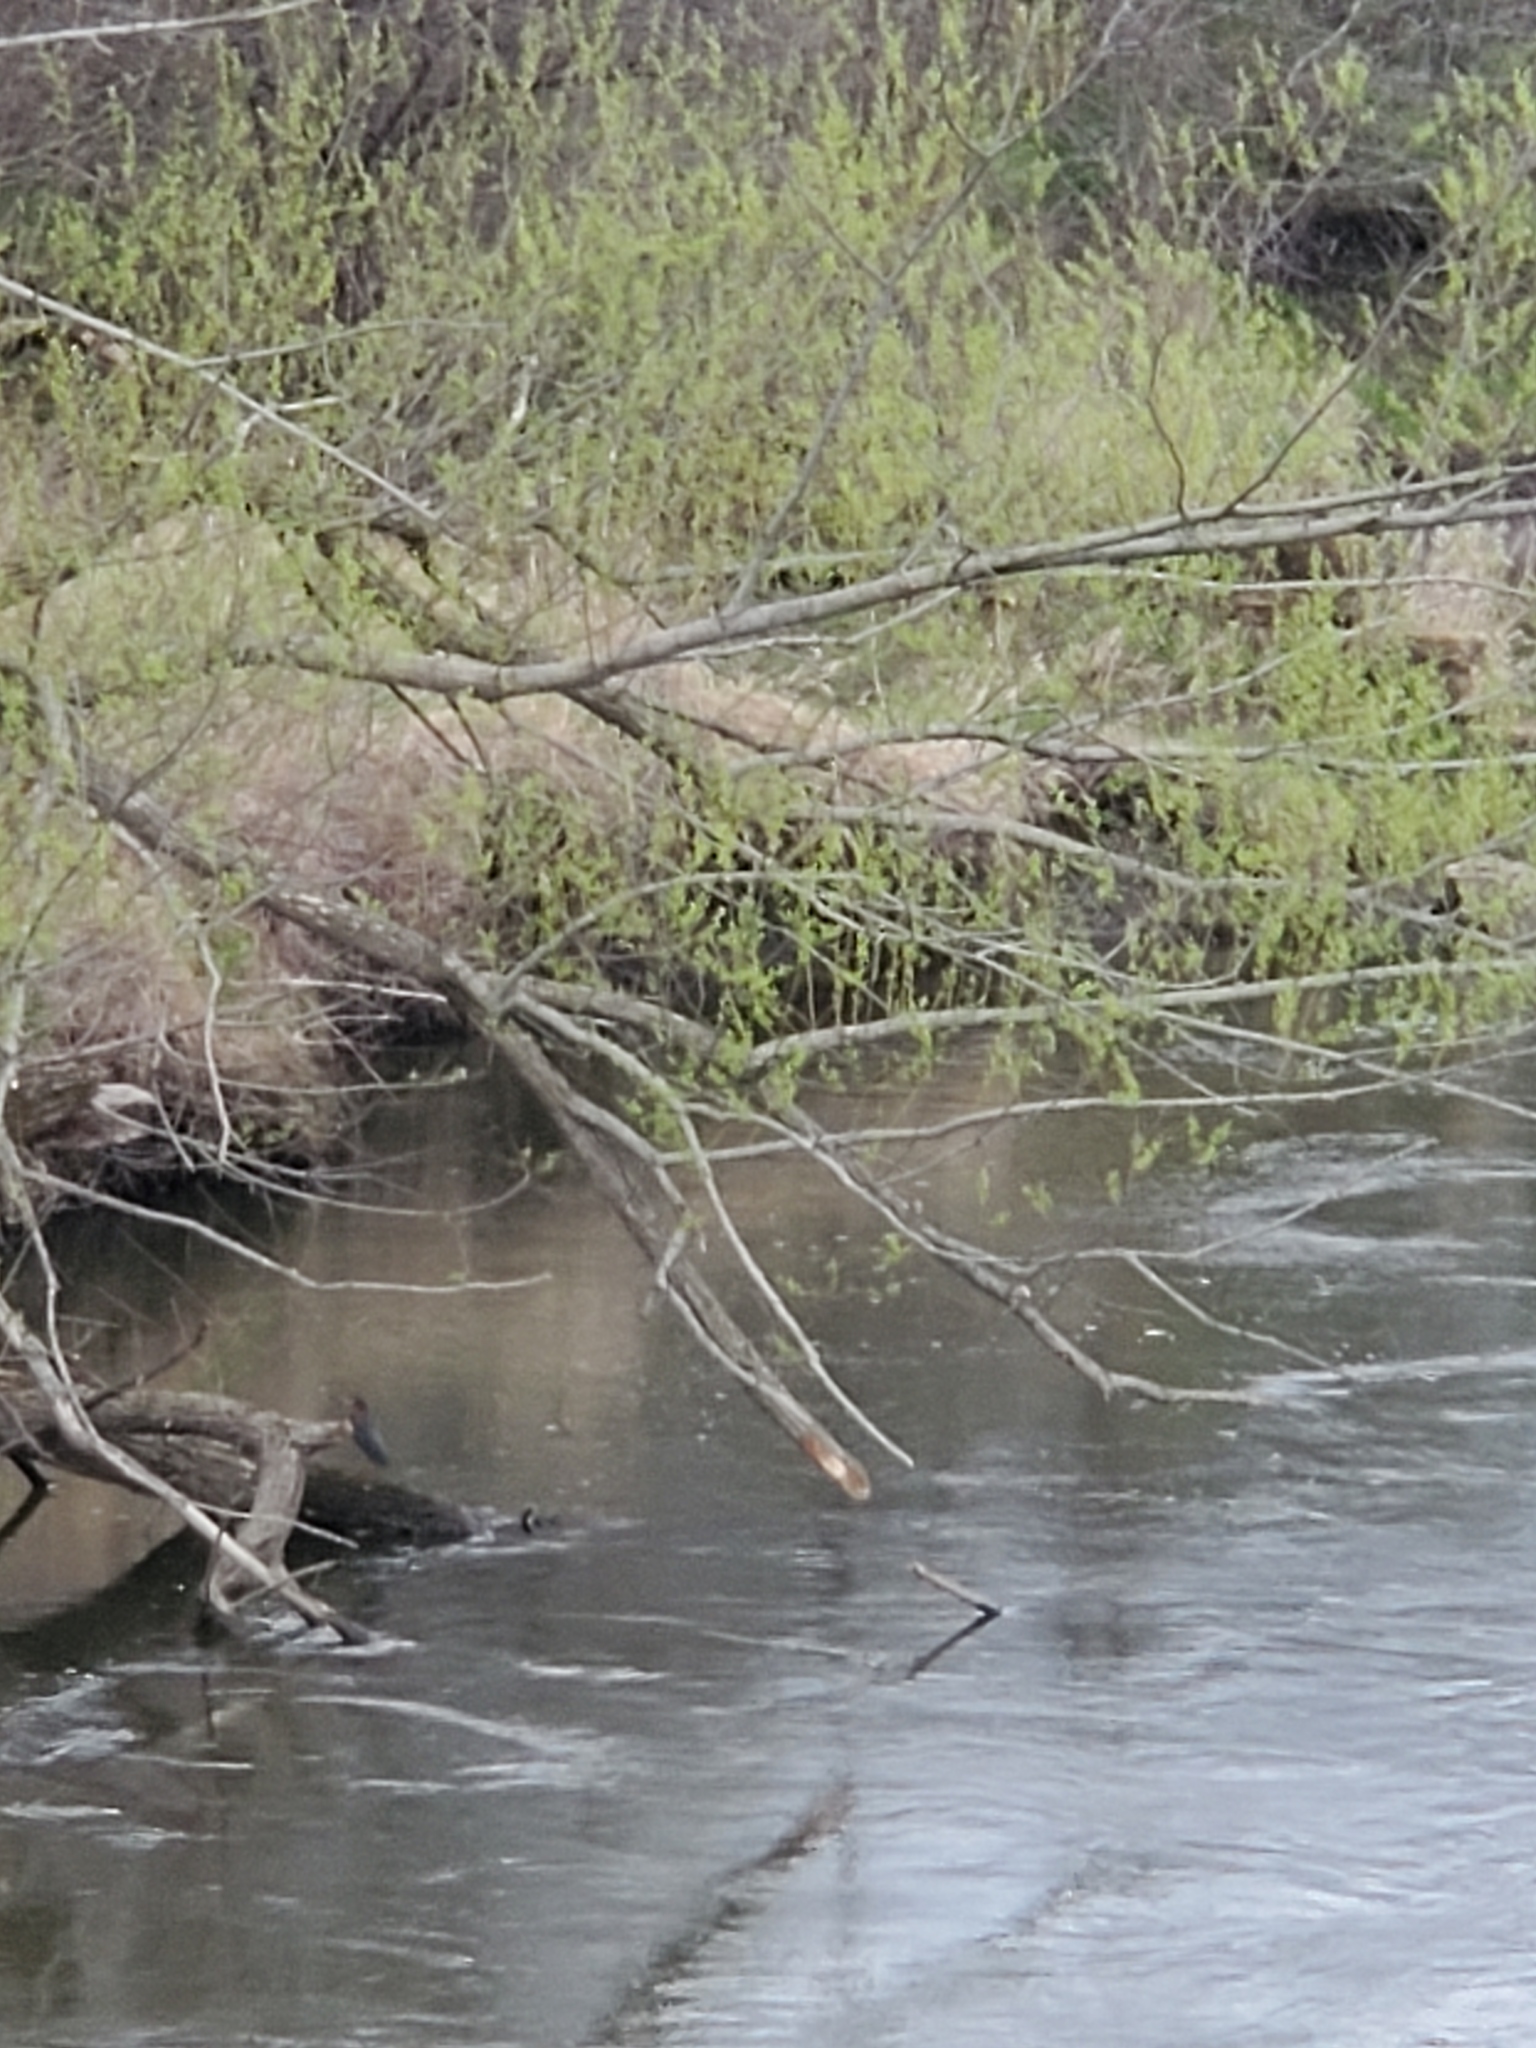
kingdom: Animalia
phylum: Chordata
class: Aves
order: Pelecaniformes
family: Ardeidae
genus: Butorides
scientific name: Butorides virescens
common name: Green heron
